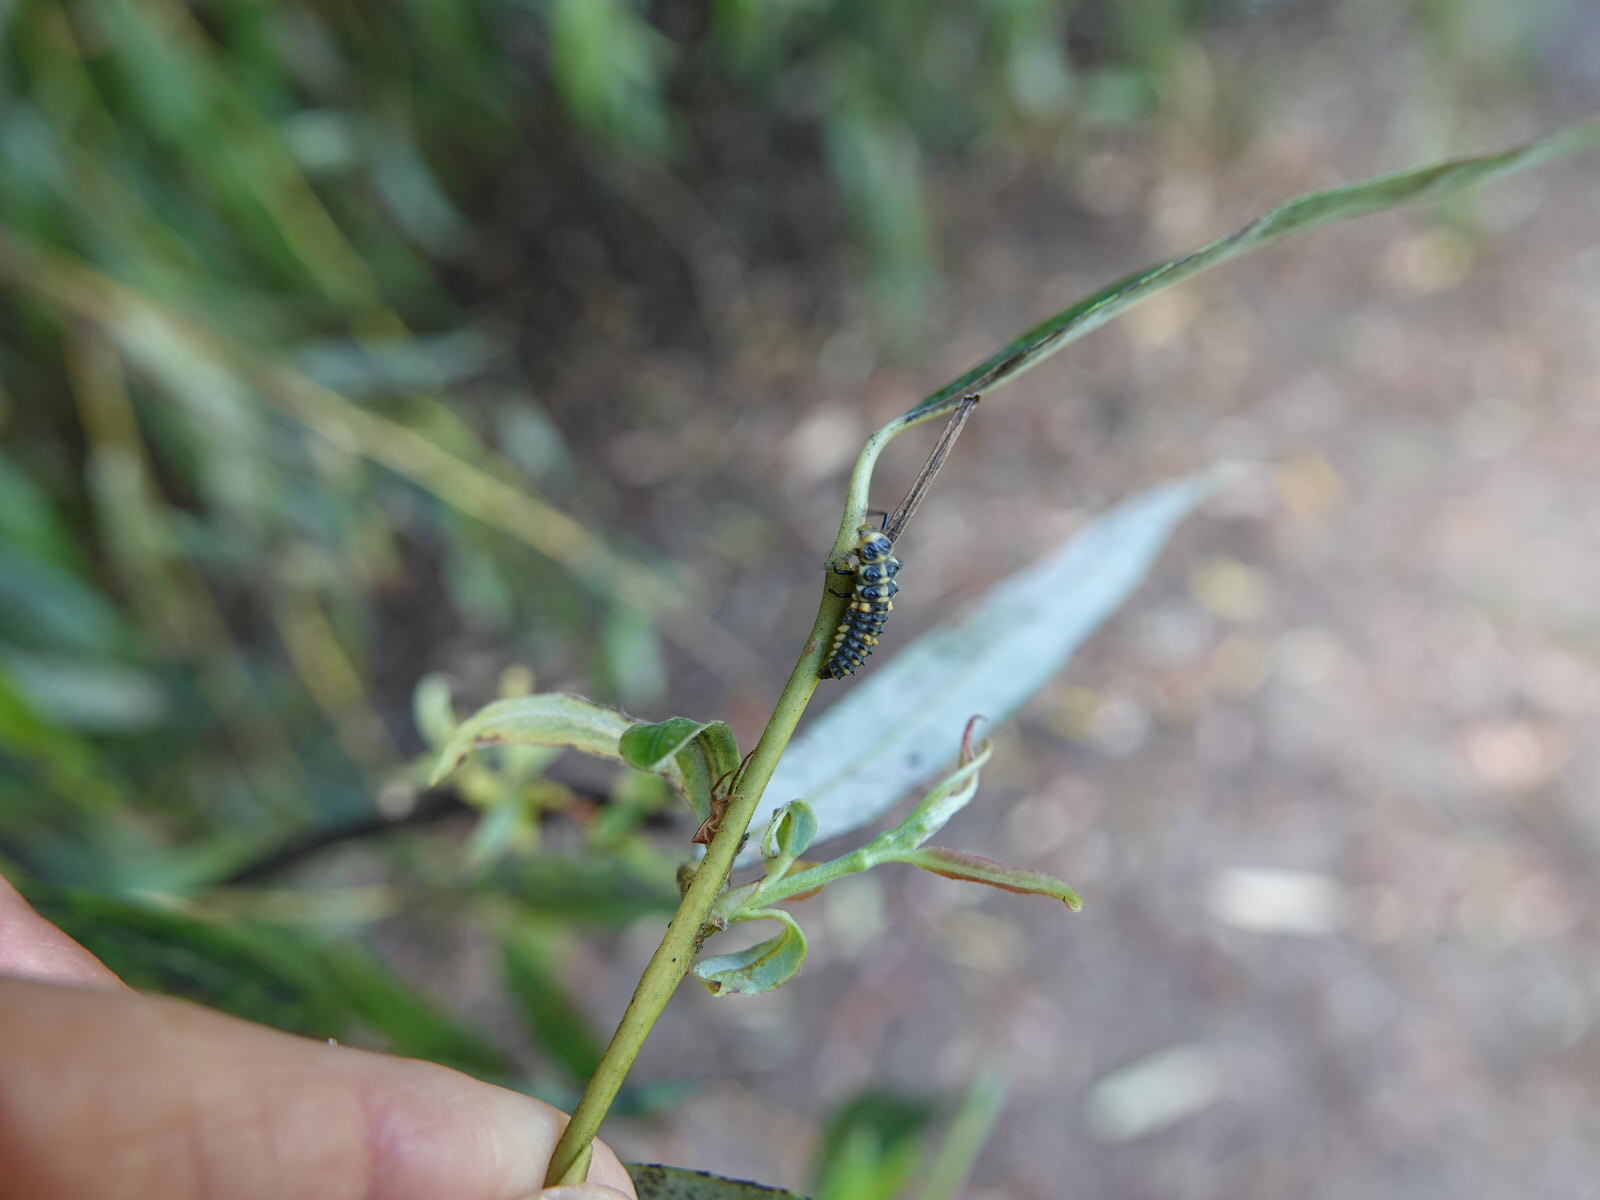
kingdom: Animalia
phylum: Arthropoda
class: Insecta
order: Coleoptera
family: Coccinellidae
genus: Adalia
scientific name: Adalia bipunctata
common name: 2-spot ladybird
